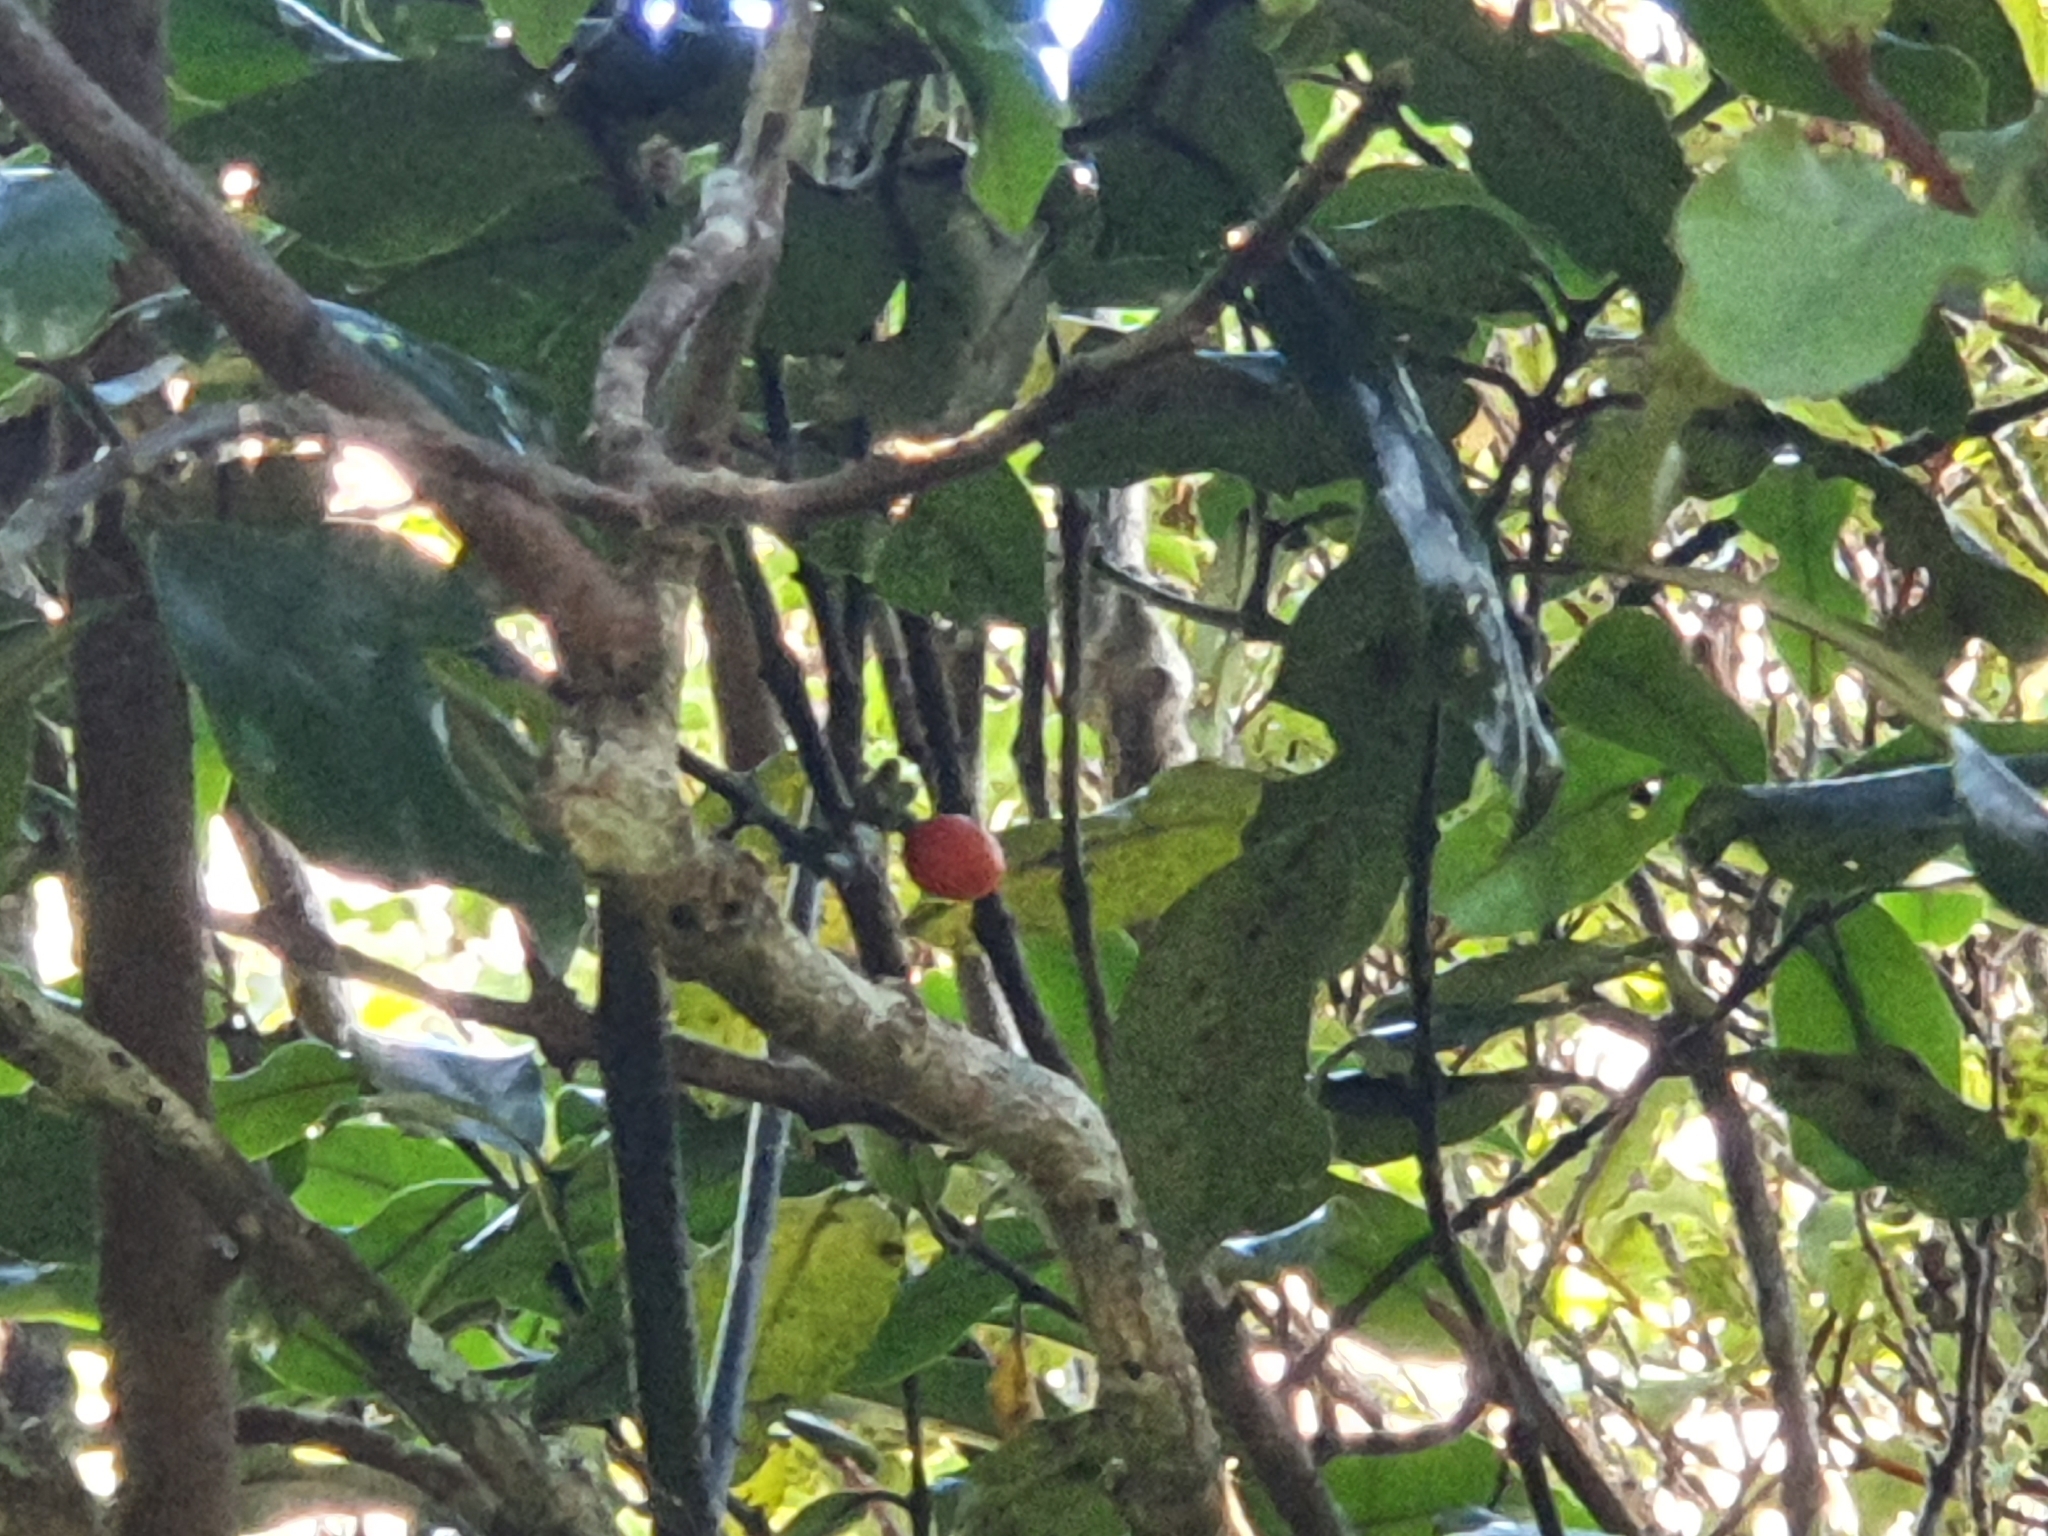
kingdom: Plantae
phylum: Tracheophyta
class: Magnoliopsida
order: Laurales
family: Monimiaceae
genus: Hedycarya
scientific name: Hedycarya arborea
